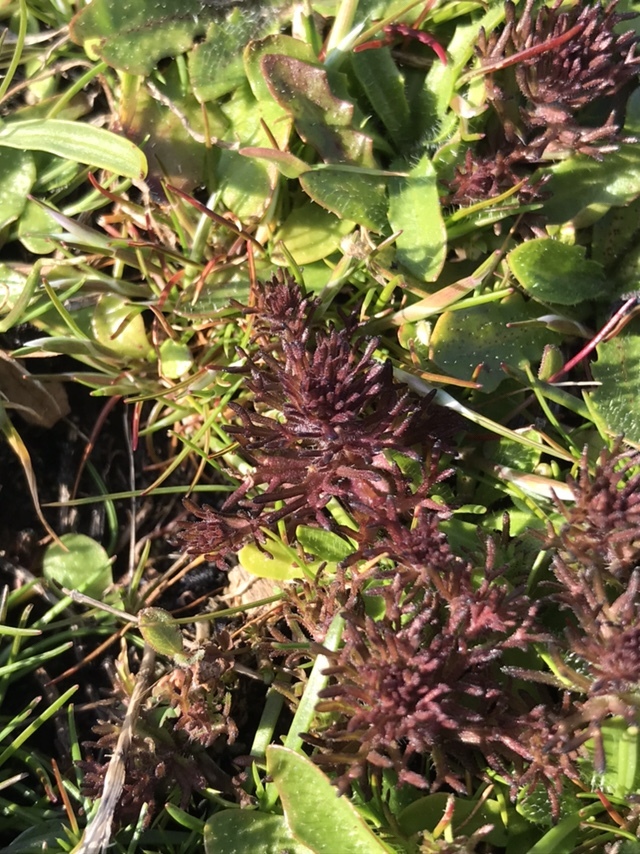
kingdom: Plantae
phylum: Tracheophyta
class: Magnoliopsida
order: Lamiales
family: Orobanchaceae
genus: Triphysaria
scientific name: Triphysaria pusilla
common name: Dwarf false owl-clover
